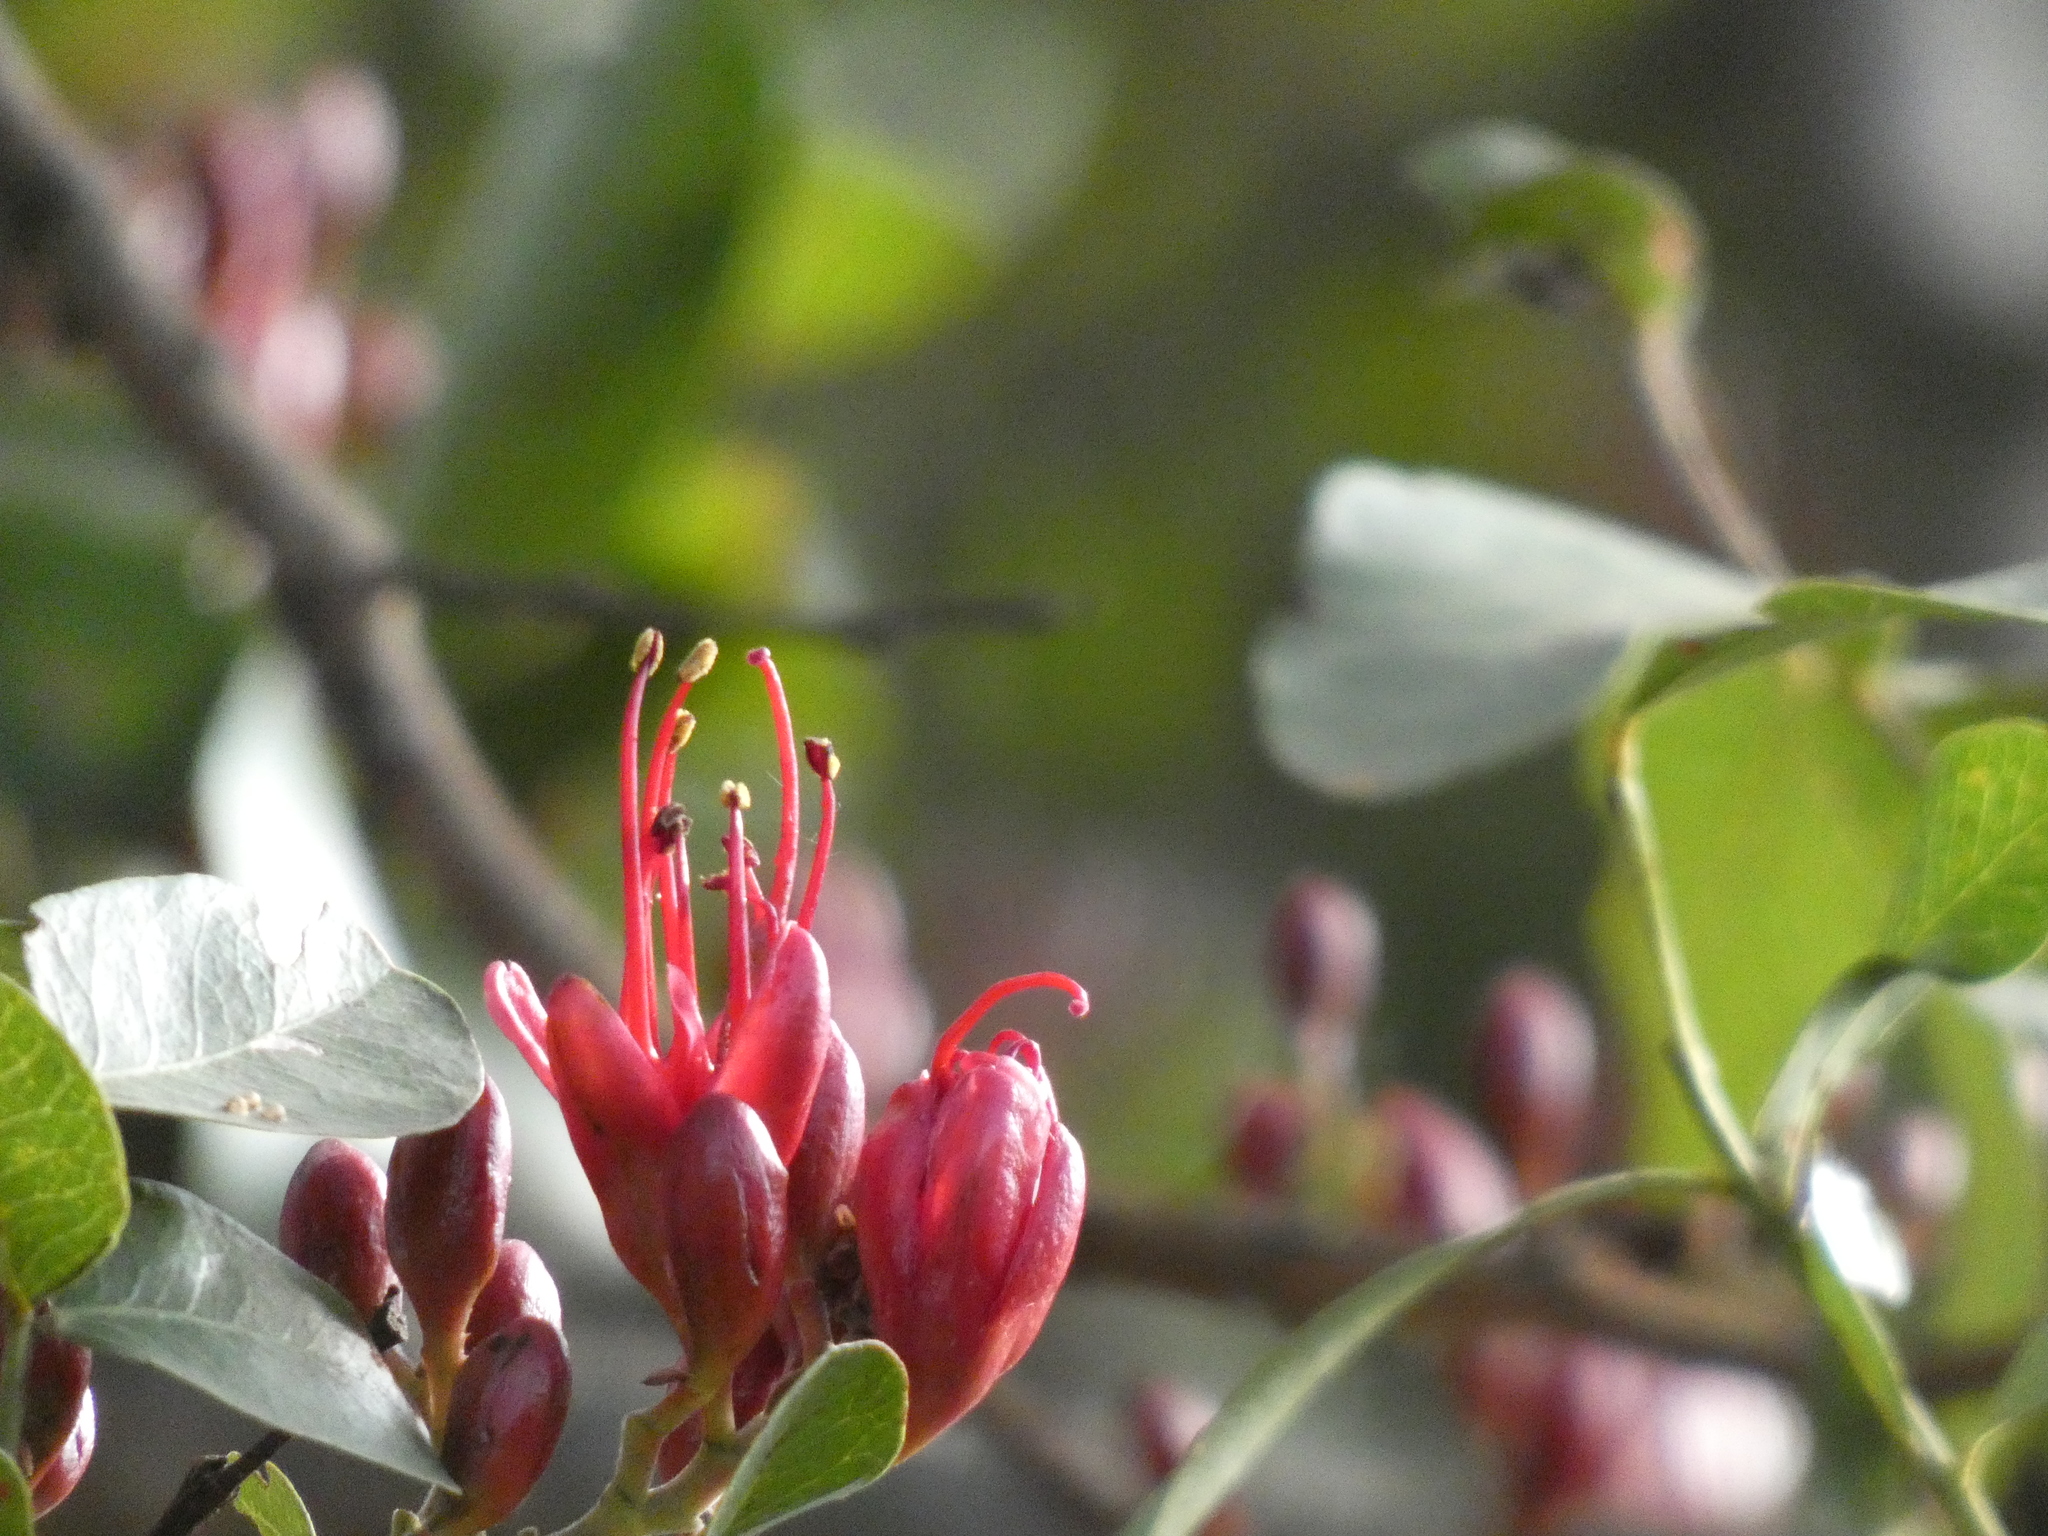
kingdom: Plantae
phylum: Tracheophyta
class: Magnoliopsida
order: Fabales
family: Fabaceae
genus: Schotia
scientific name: Schotia brachypetala
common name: Weeping boer-bean
